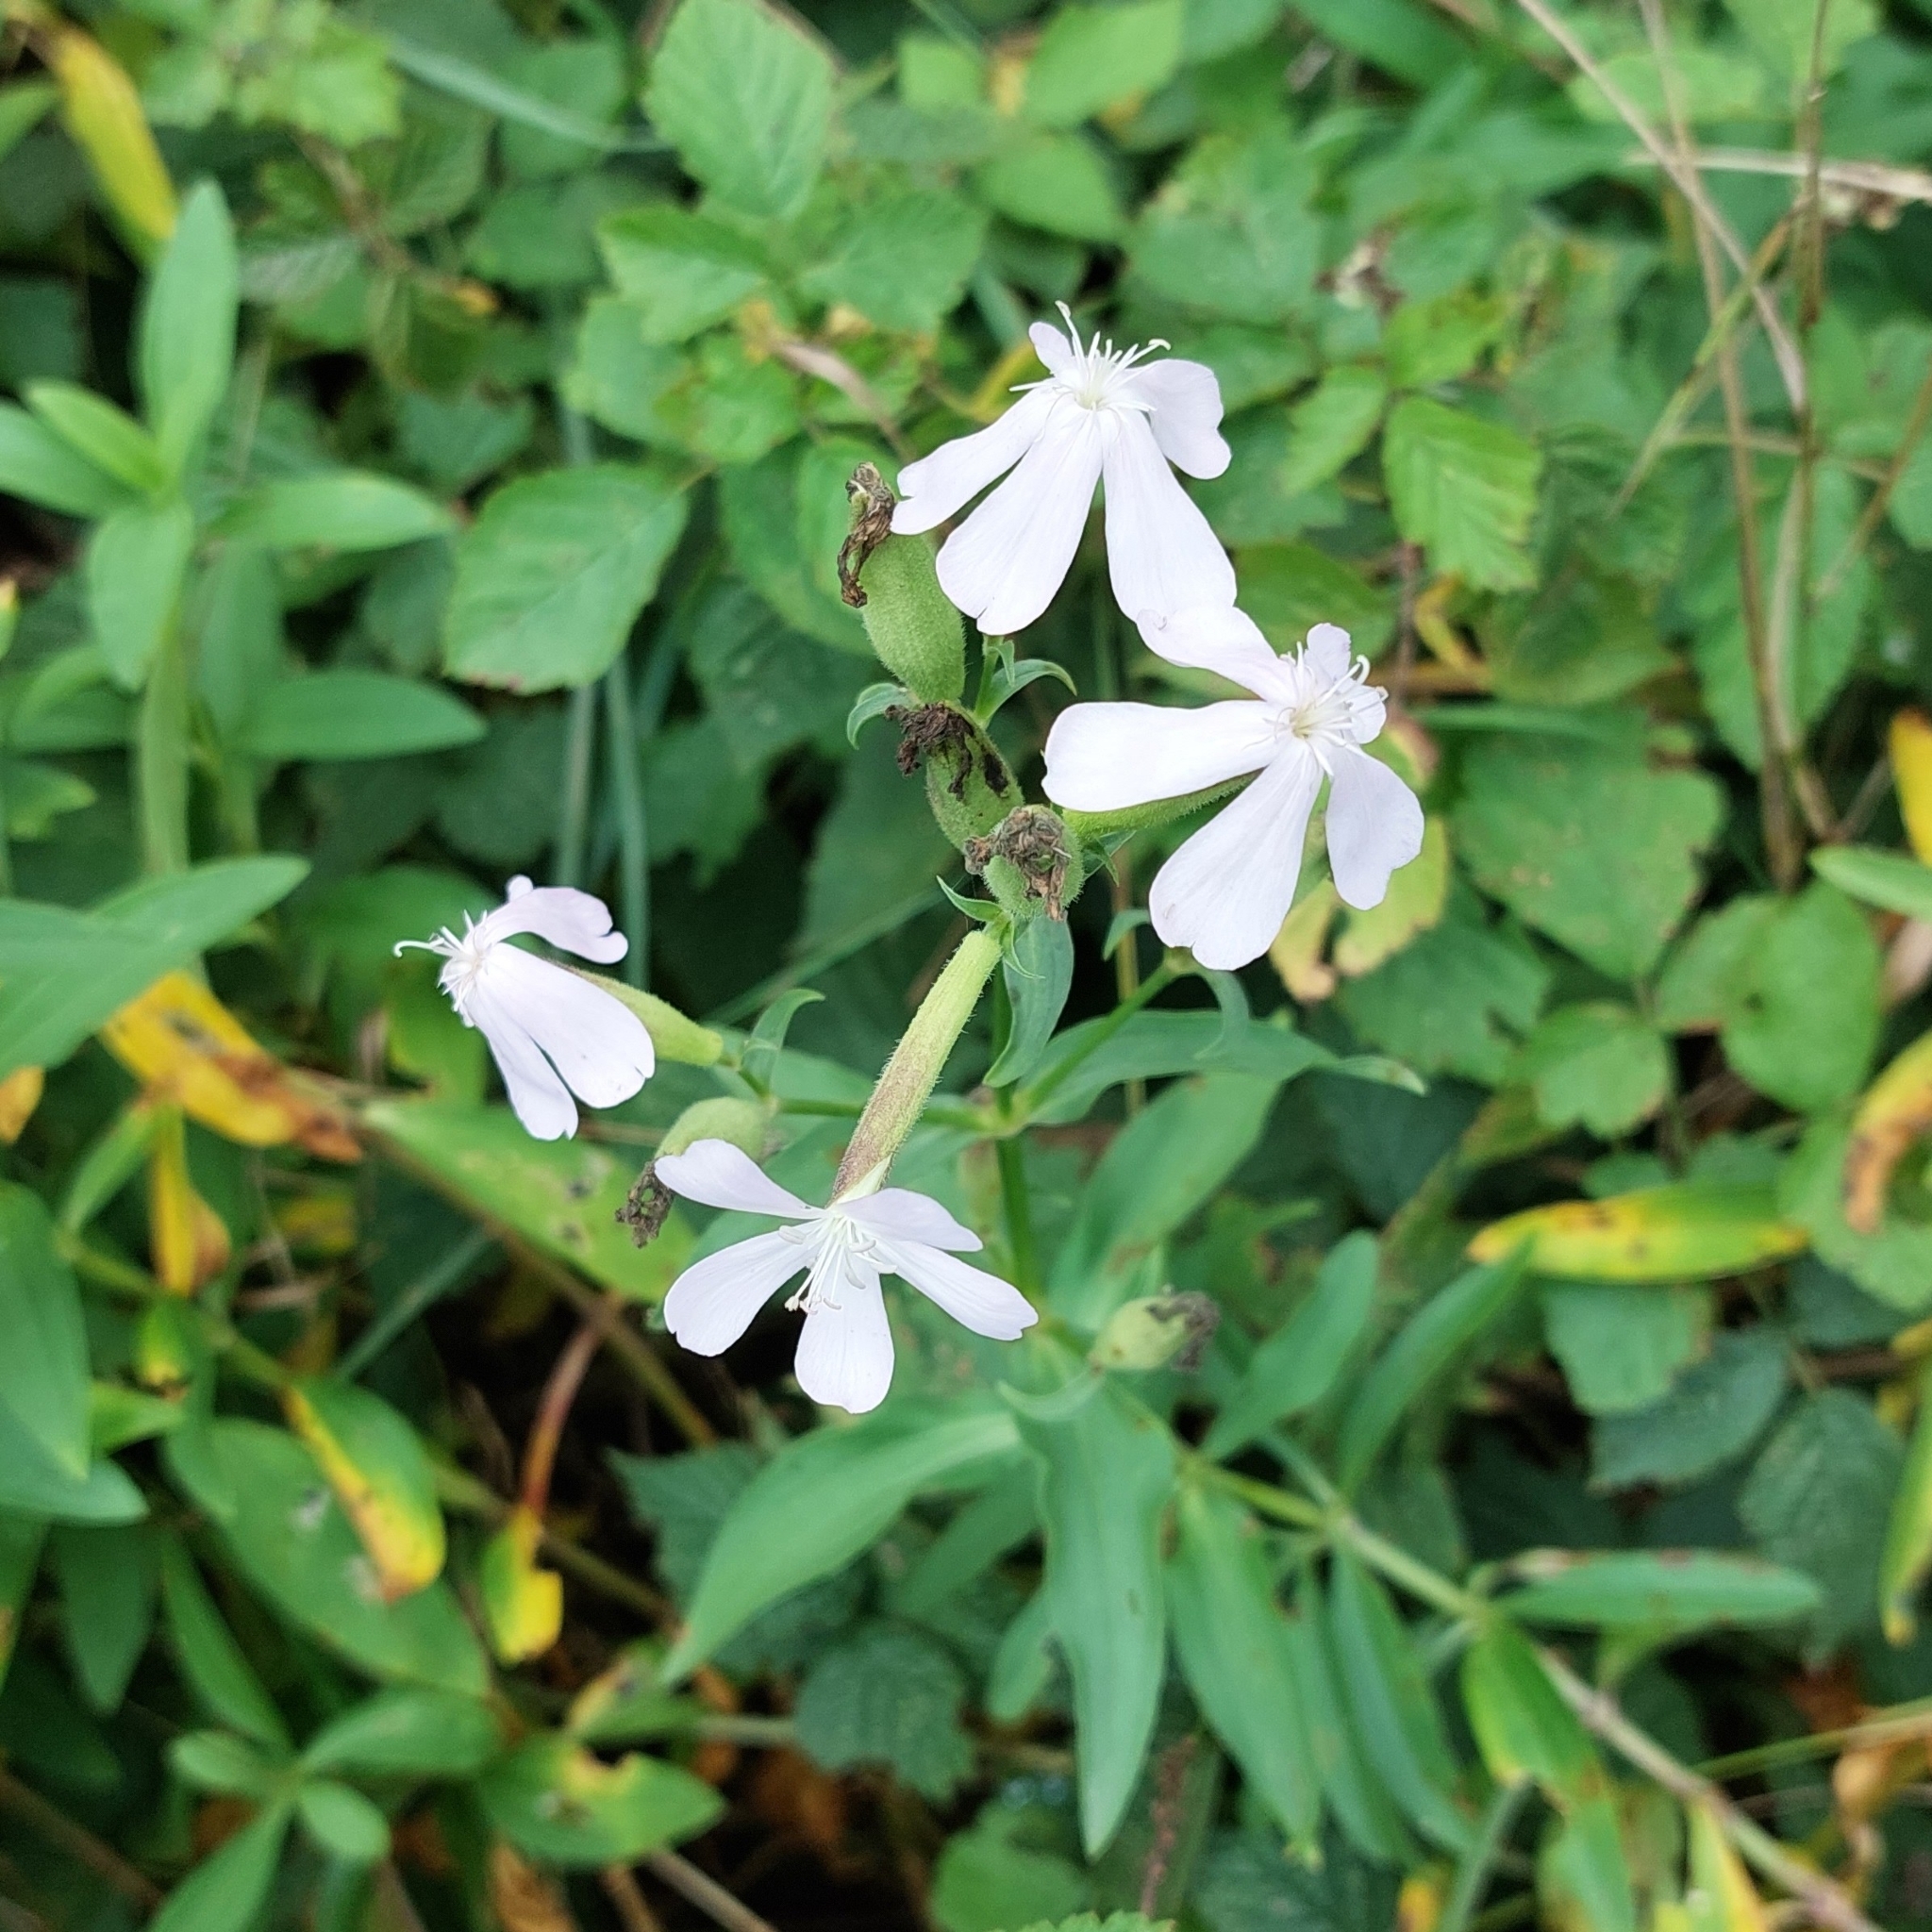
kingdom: Plantae
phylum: Tracheophyta
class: Magnoliopsida
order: Caryophyllales
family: Caryophyllaceae
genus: Saponaria
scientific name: Saponaria officinalis
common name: Soapwort
